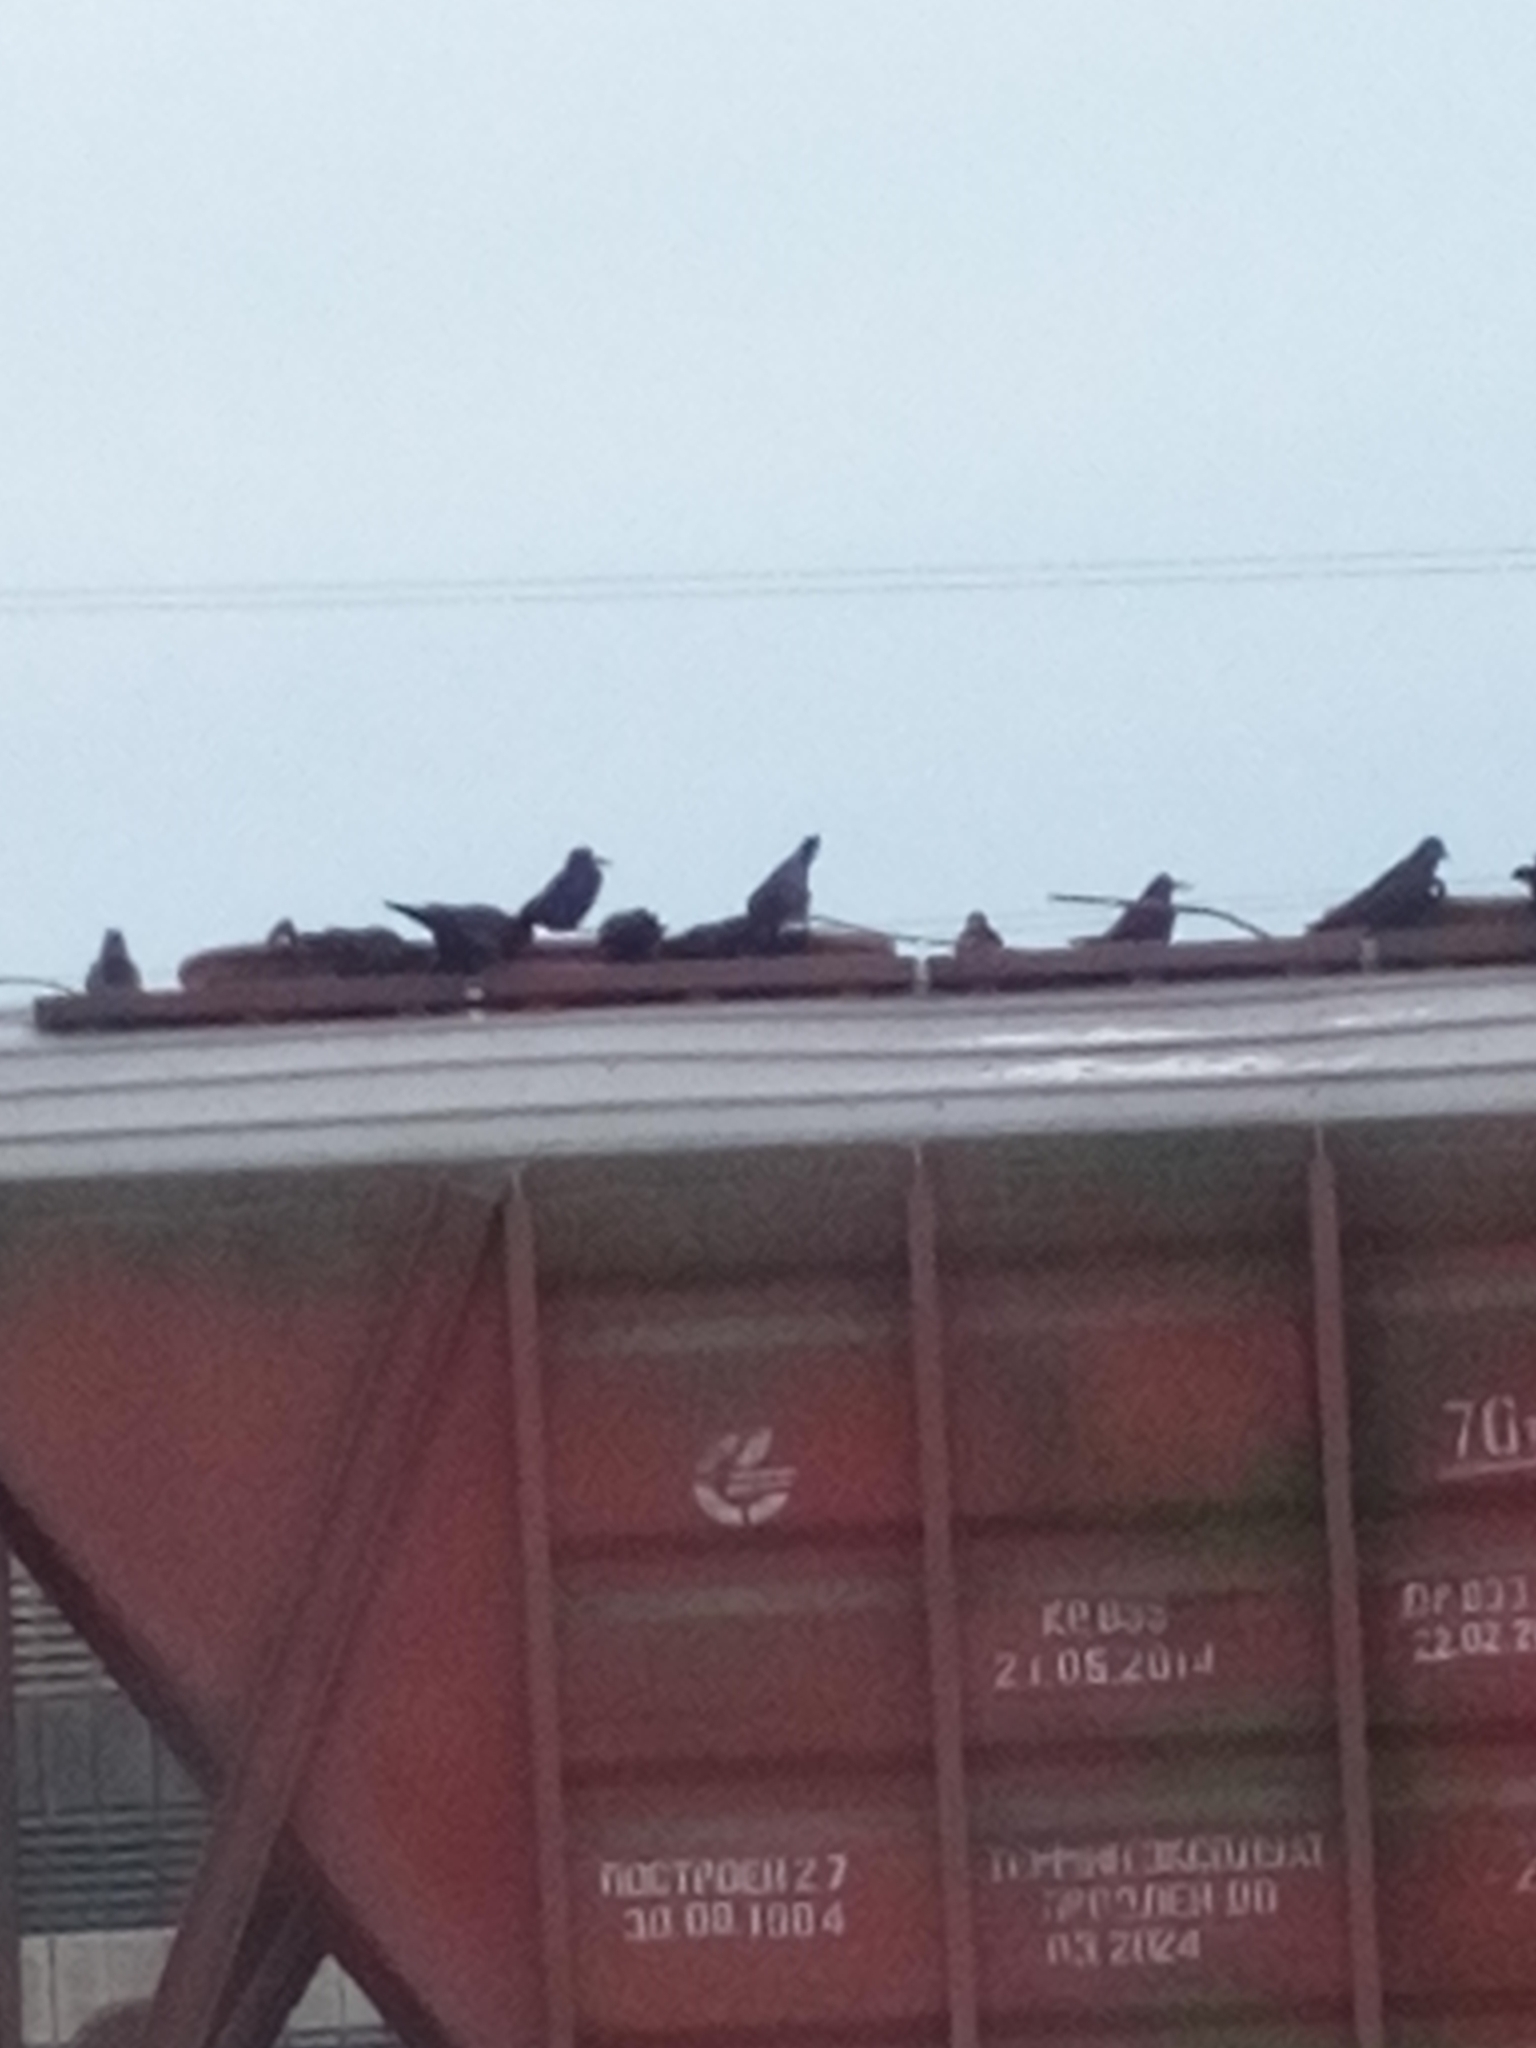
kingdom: Animalia
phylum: Chordata
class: Aves
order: Passeriformes
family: Corvidae
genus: Corvus
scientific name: Corvus frugilegus
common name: Rook
